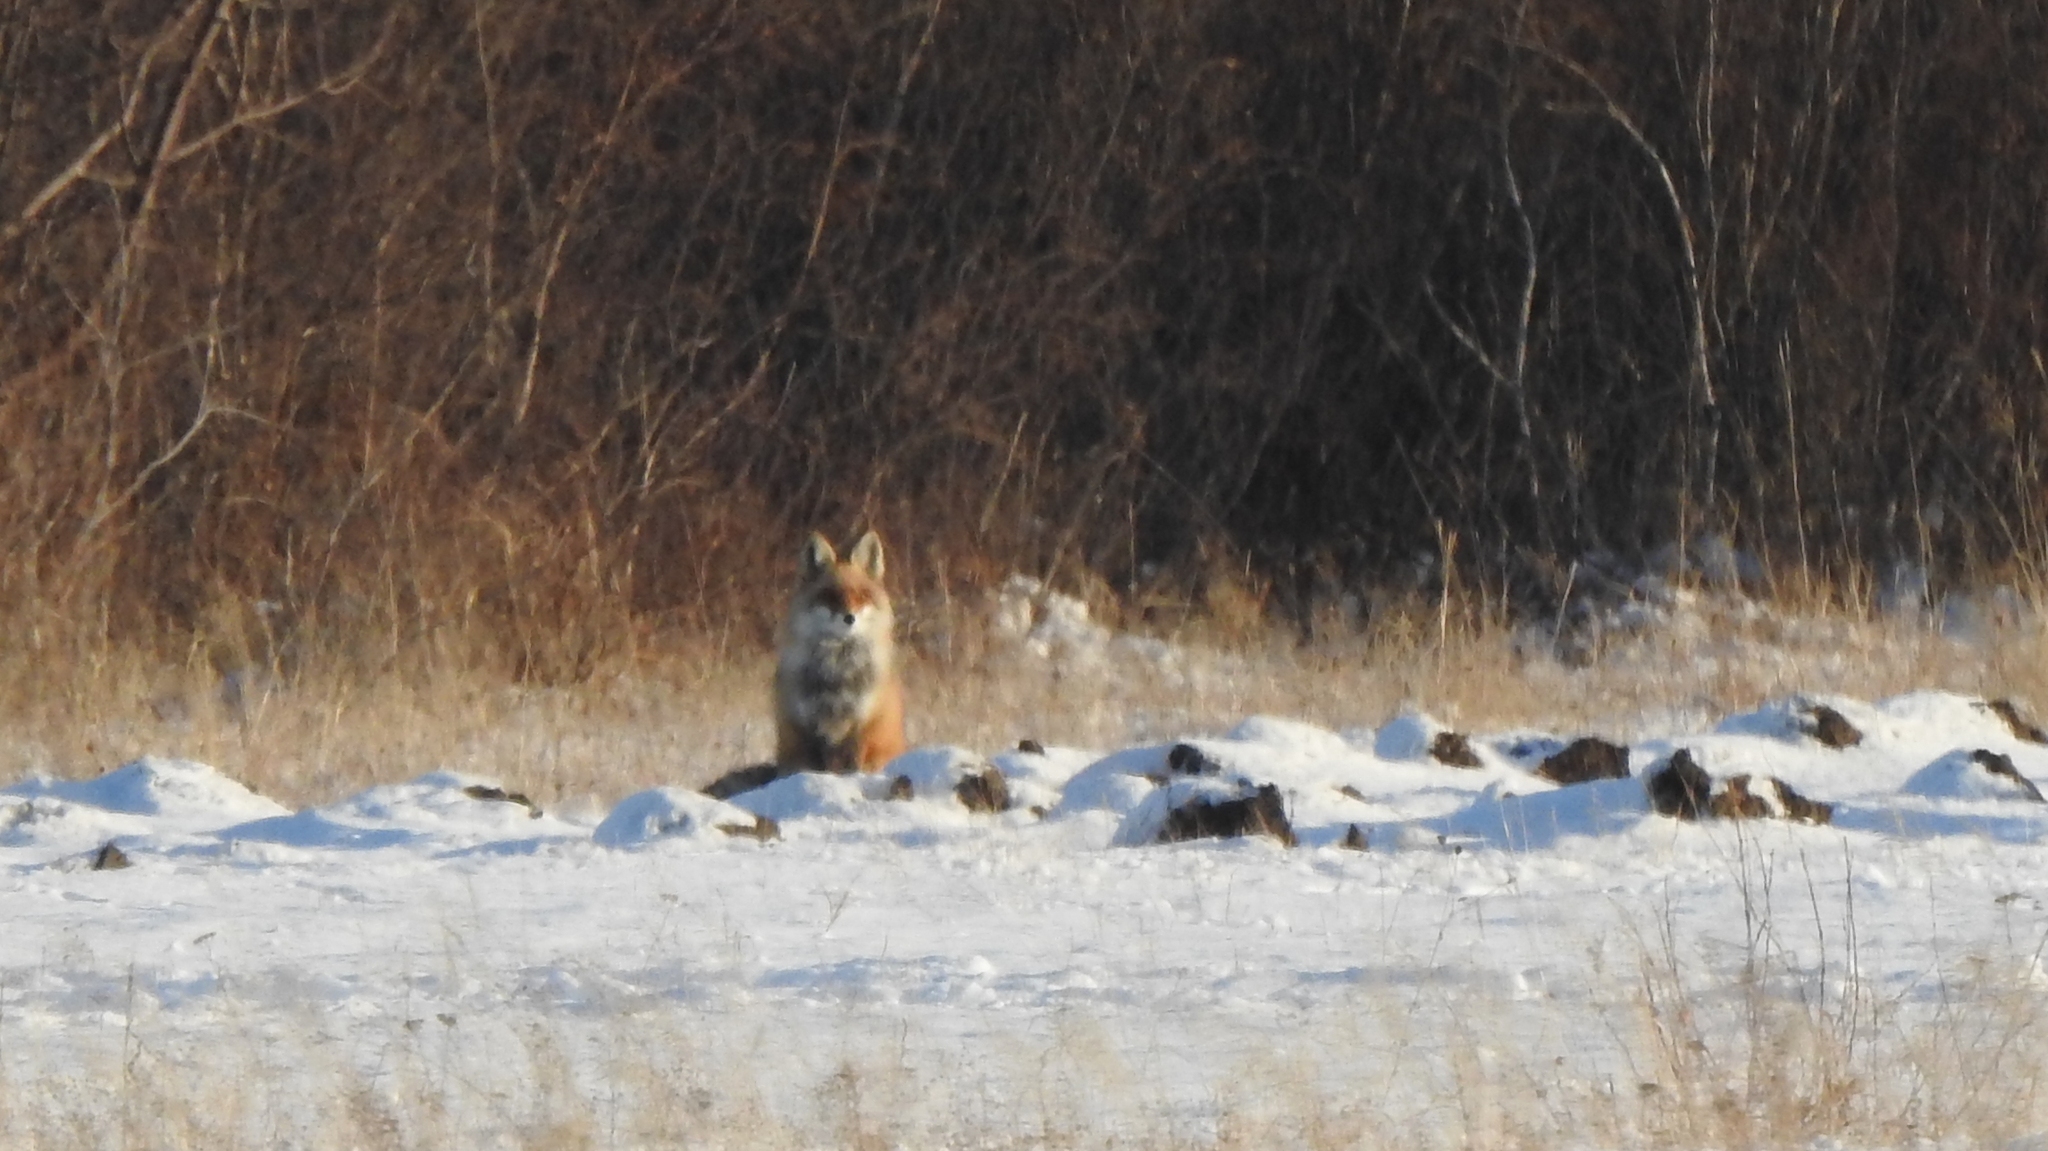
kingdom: Animalia
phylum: Chordata
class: Mammalia
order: Carnivora
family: Canidae
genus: Vulpes
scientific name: Vulpes vulpes
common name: Red fox
